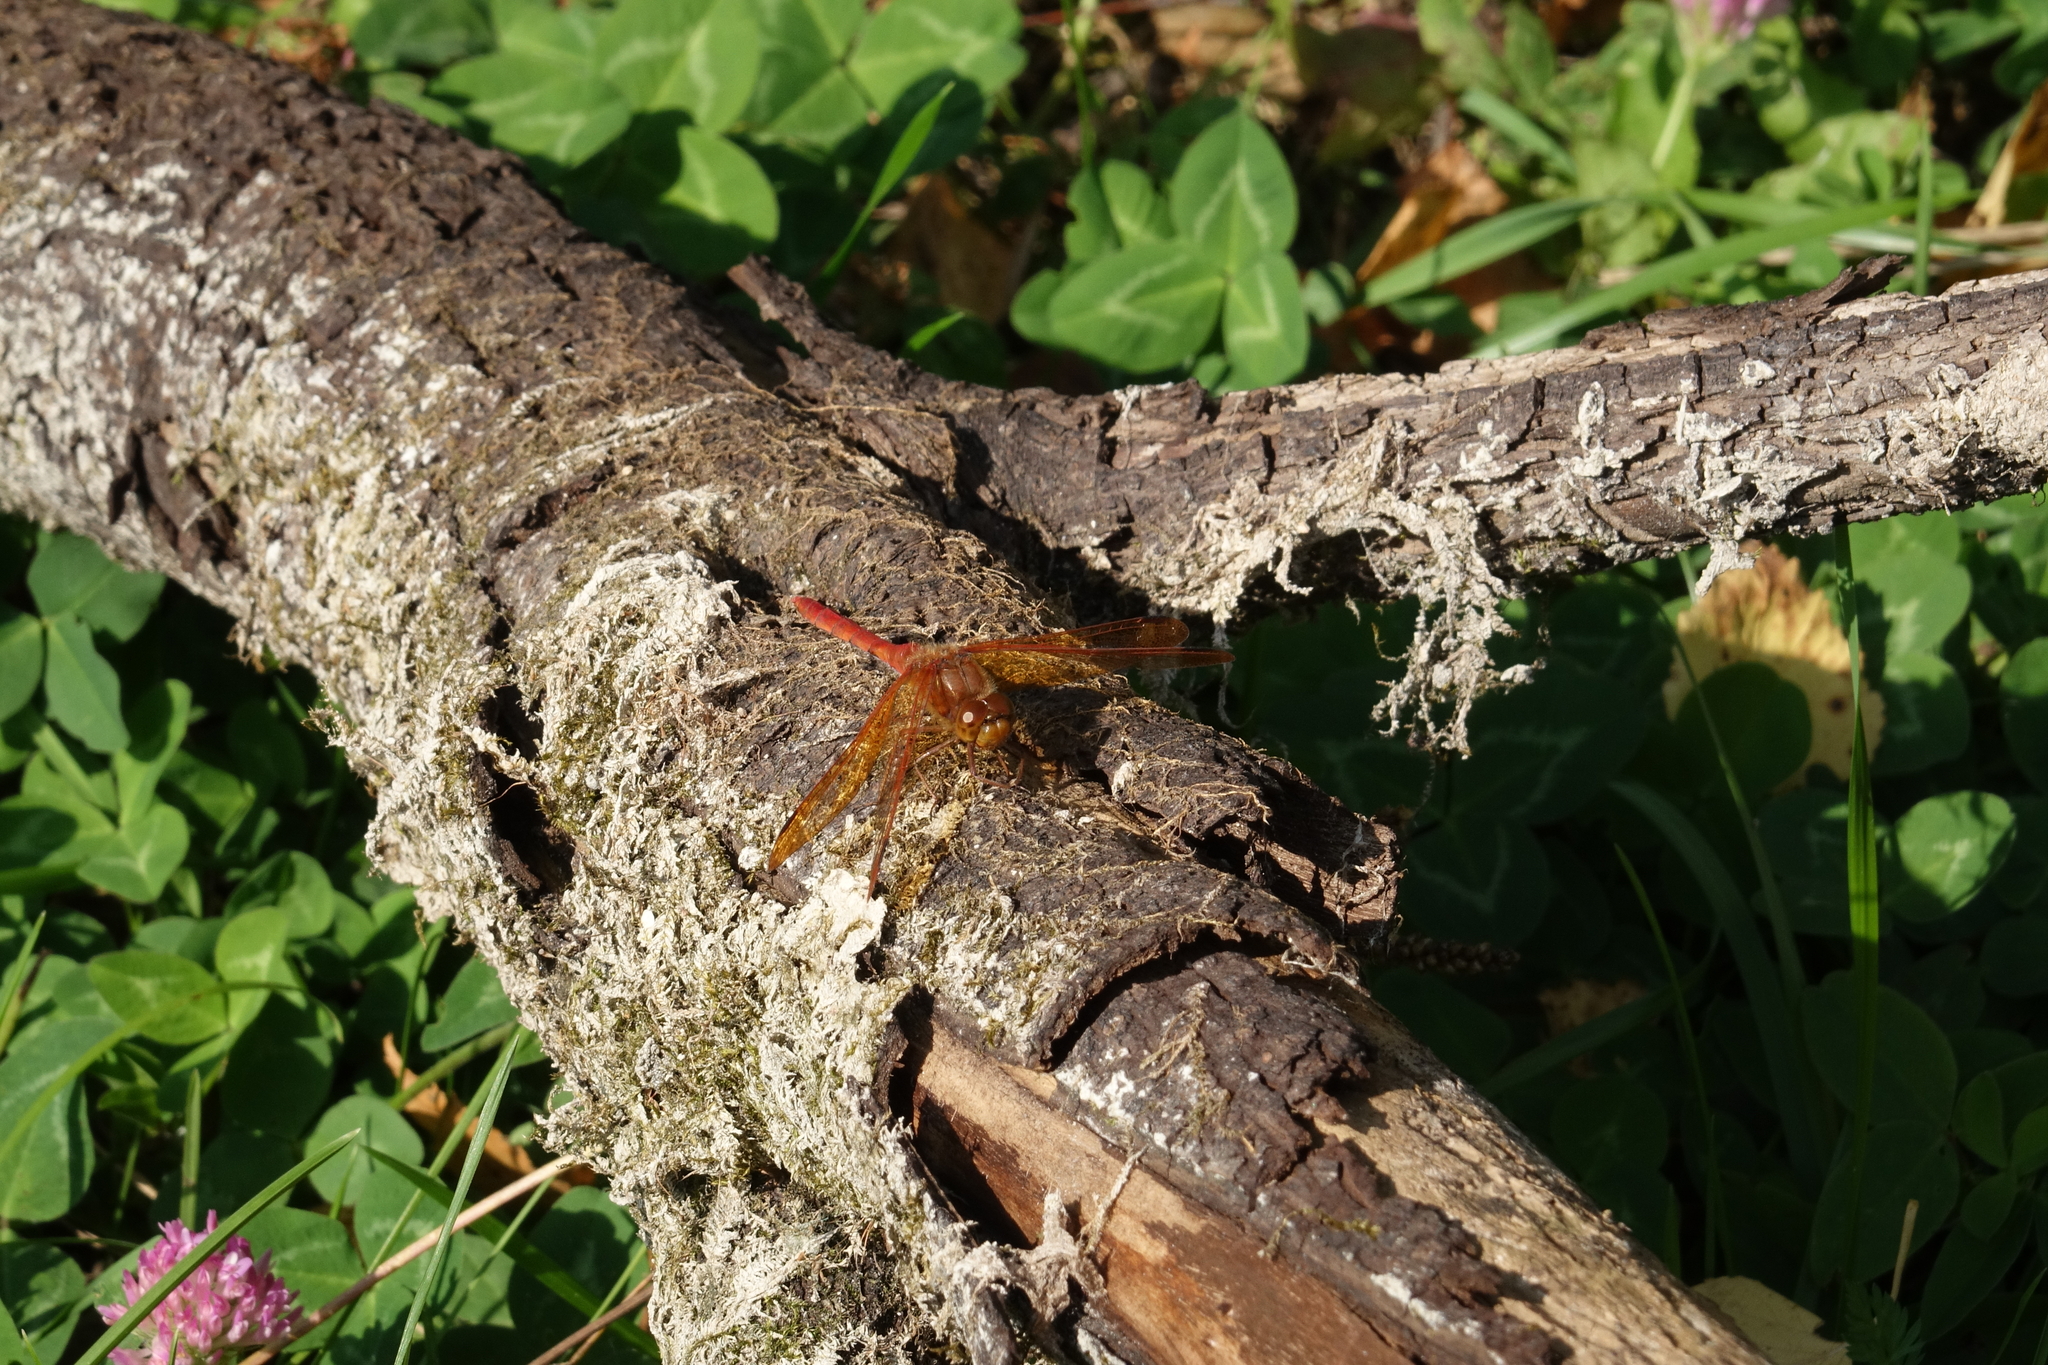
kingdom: Animalia
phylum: Arthropoda
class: Insecta
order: Odonata
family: Libellulidae
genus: Sympetrum
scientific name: Sympetrum croceolum
